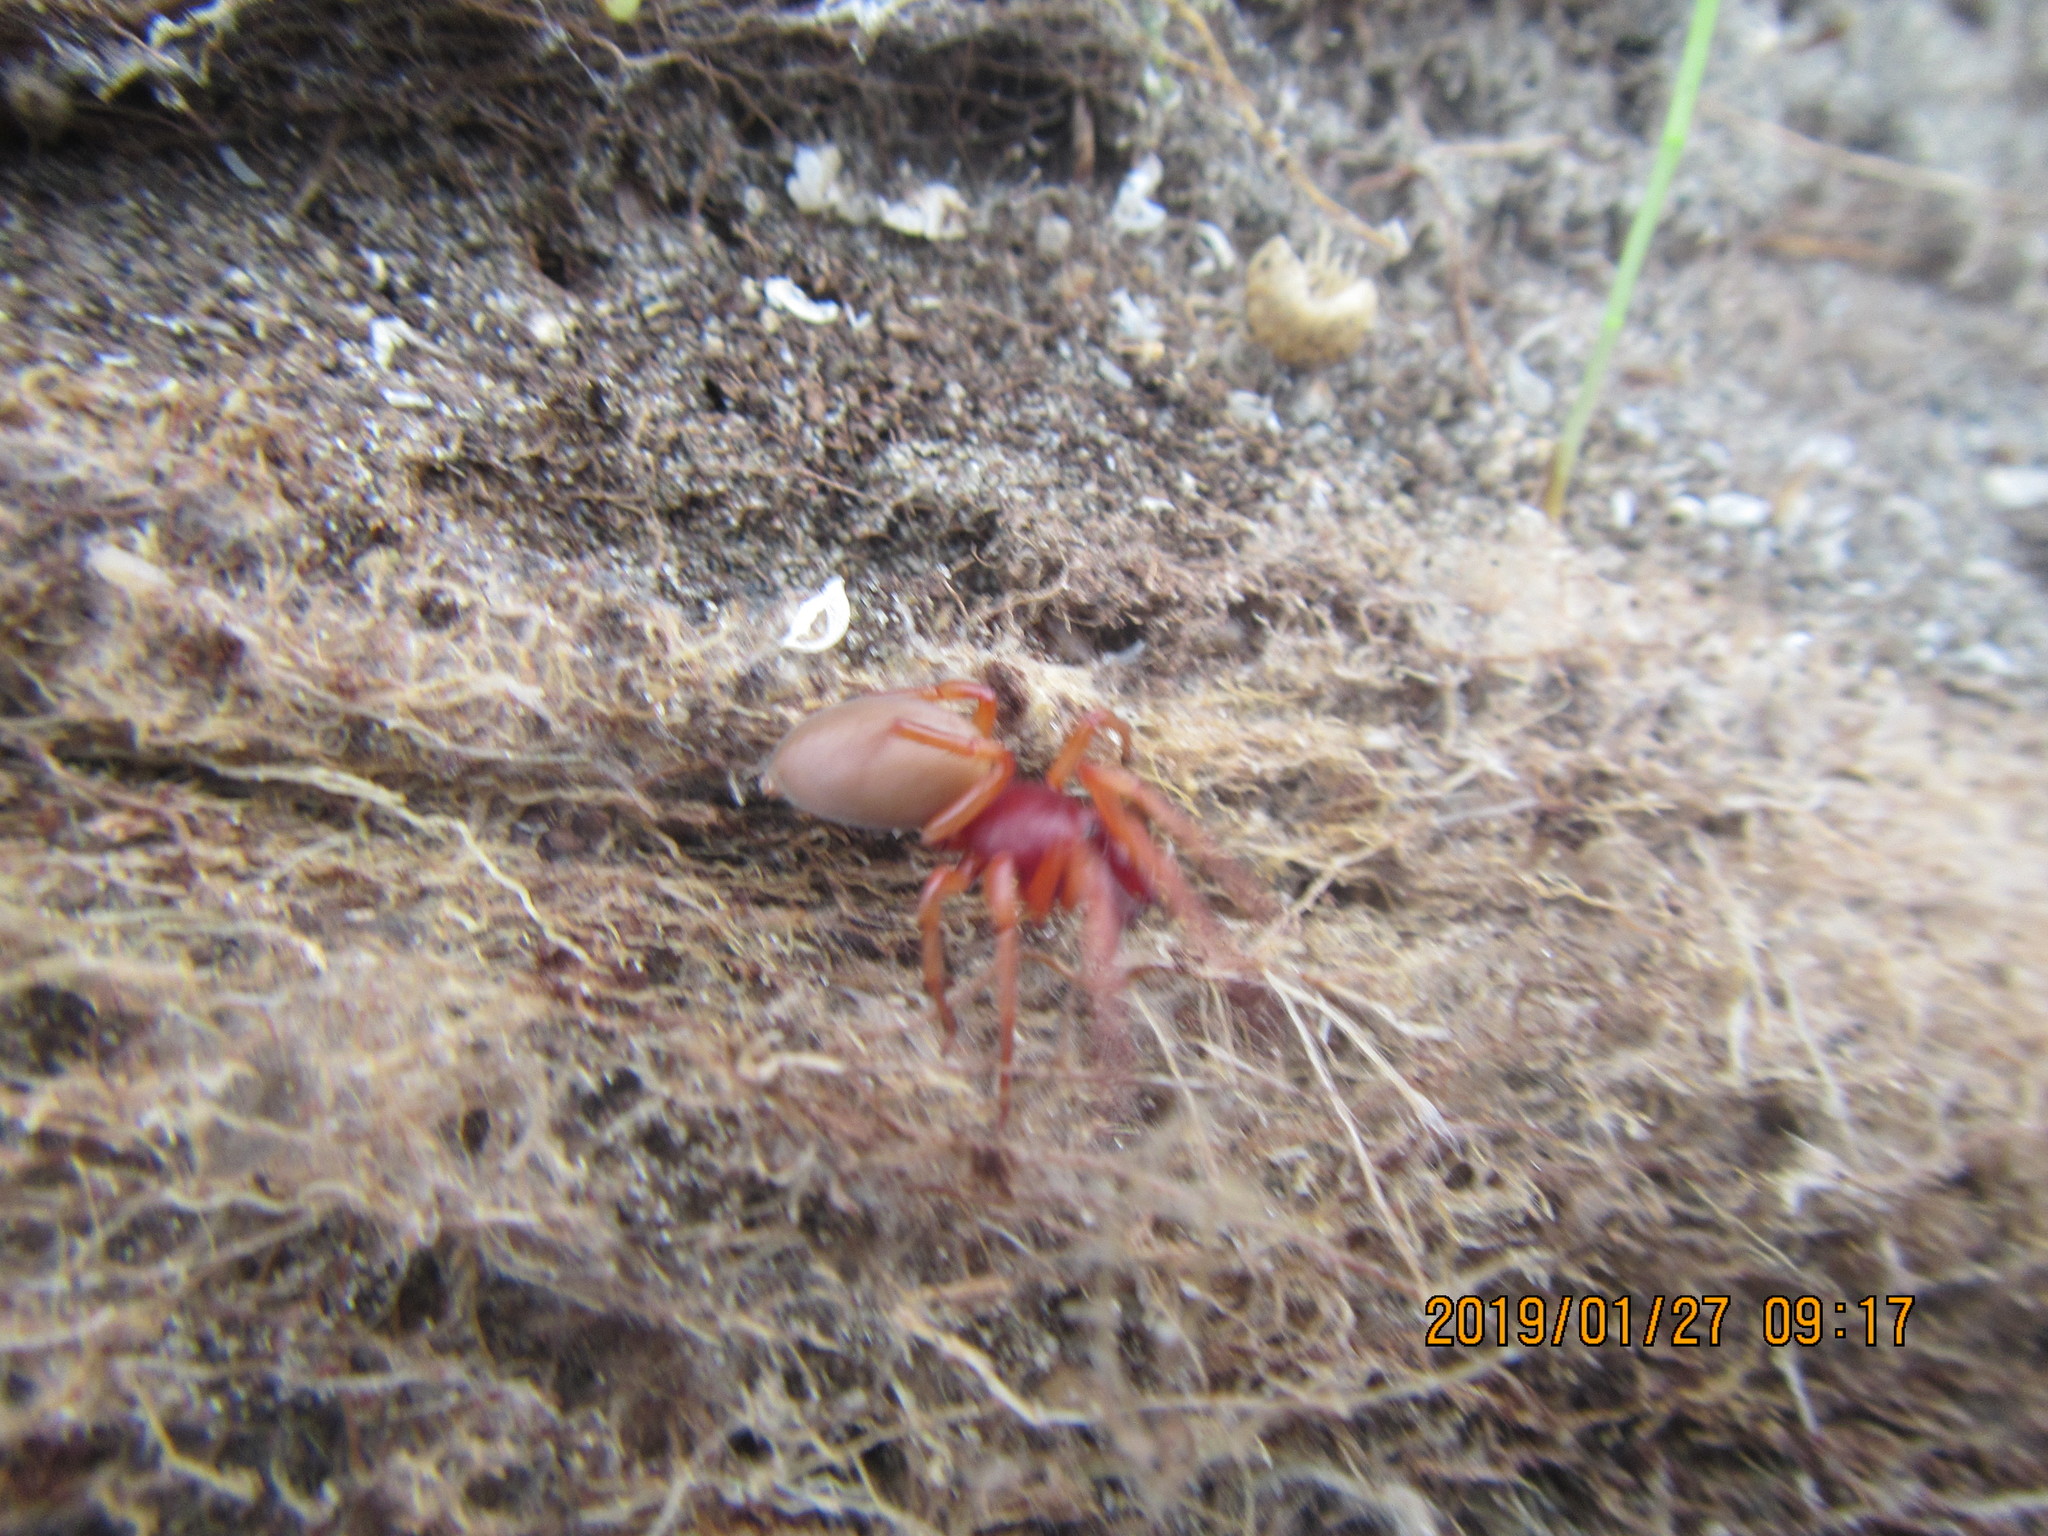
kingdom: Animalia
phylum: Arthropoda
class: Arachnida
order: Araneae
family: Dysderidae
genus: Dysdera
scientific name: Dysdera crocata
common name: Woodlouse spider
